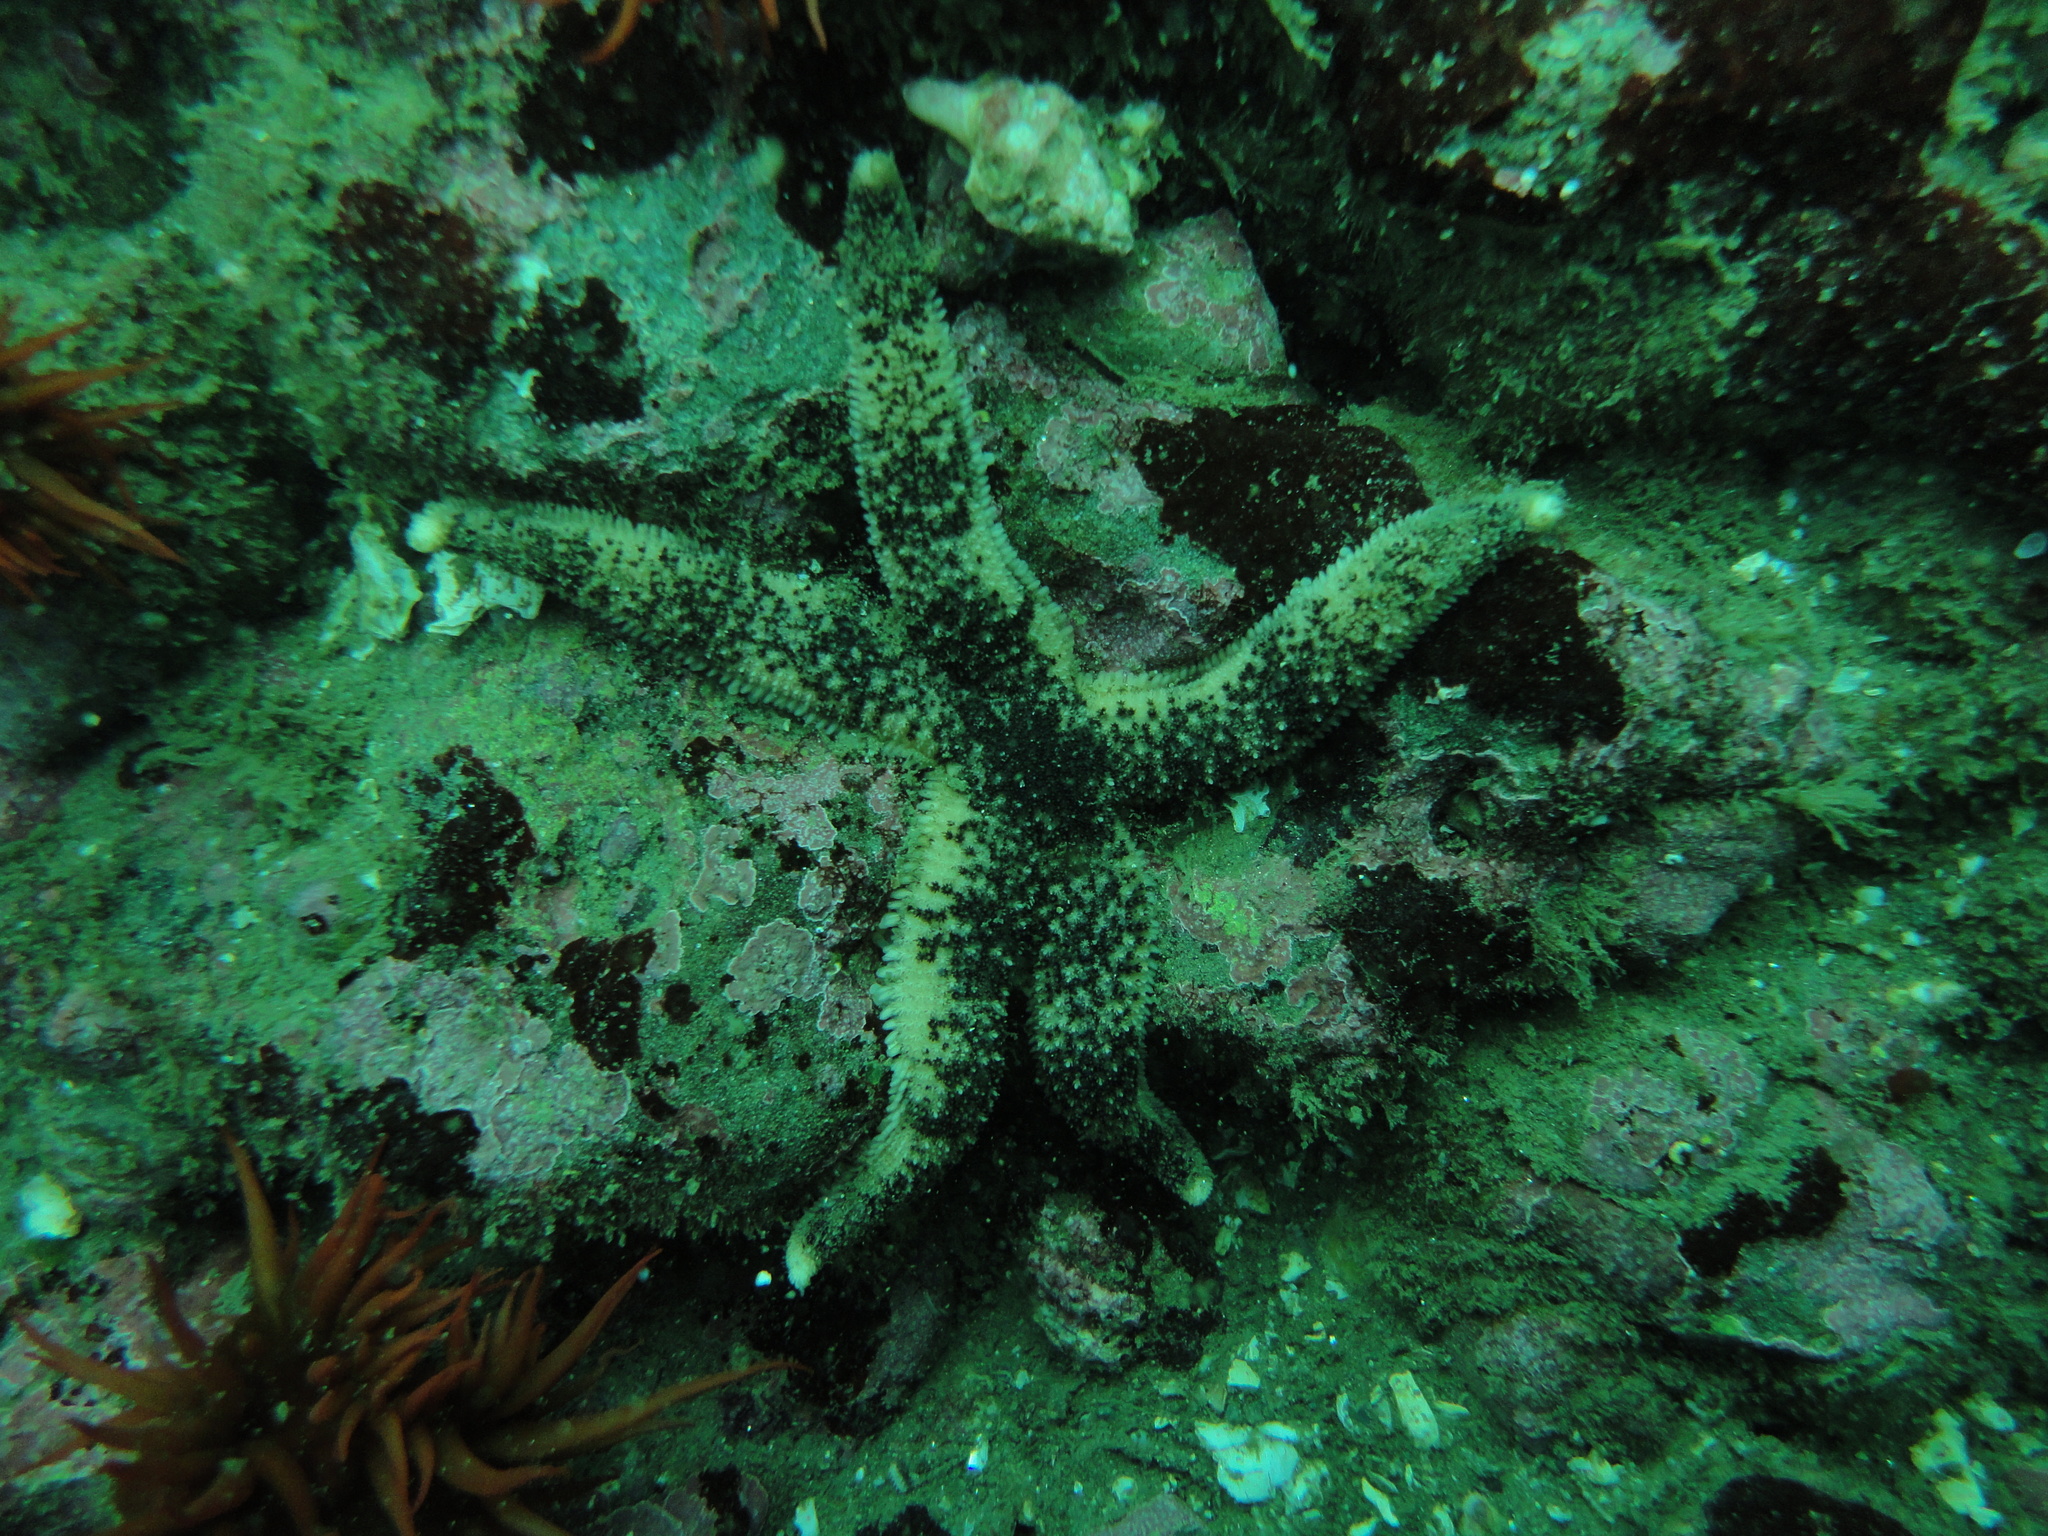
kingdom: Animalia
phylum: Echinodermata
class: Asteroidea
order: Paxillosida
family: Luidiidae
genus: Luidia
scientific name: Luidia magellanica
